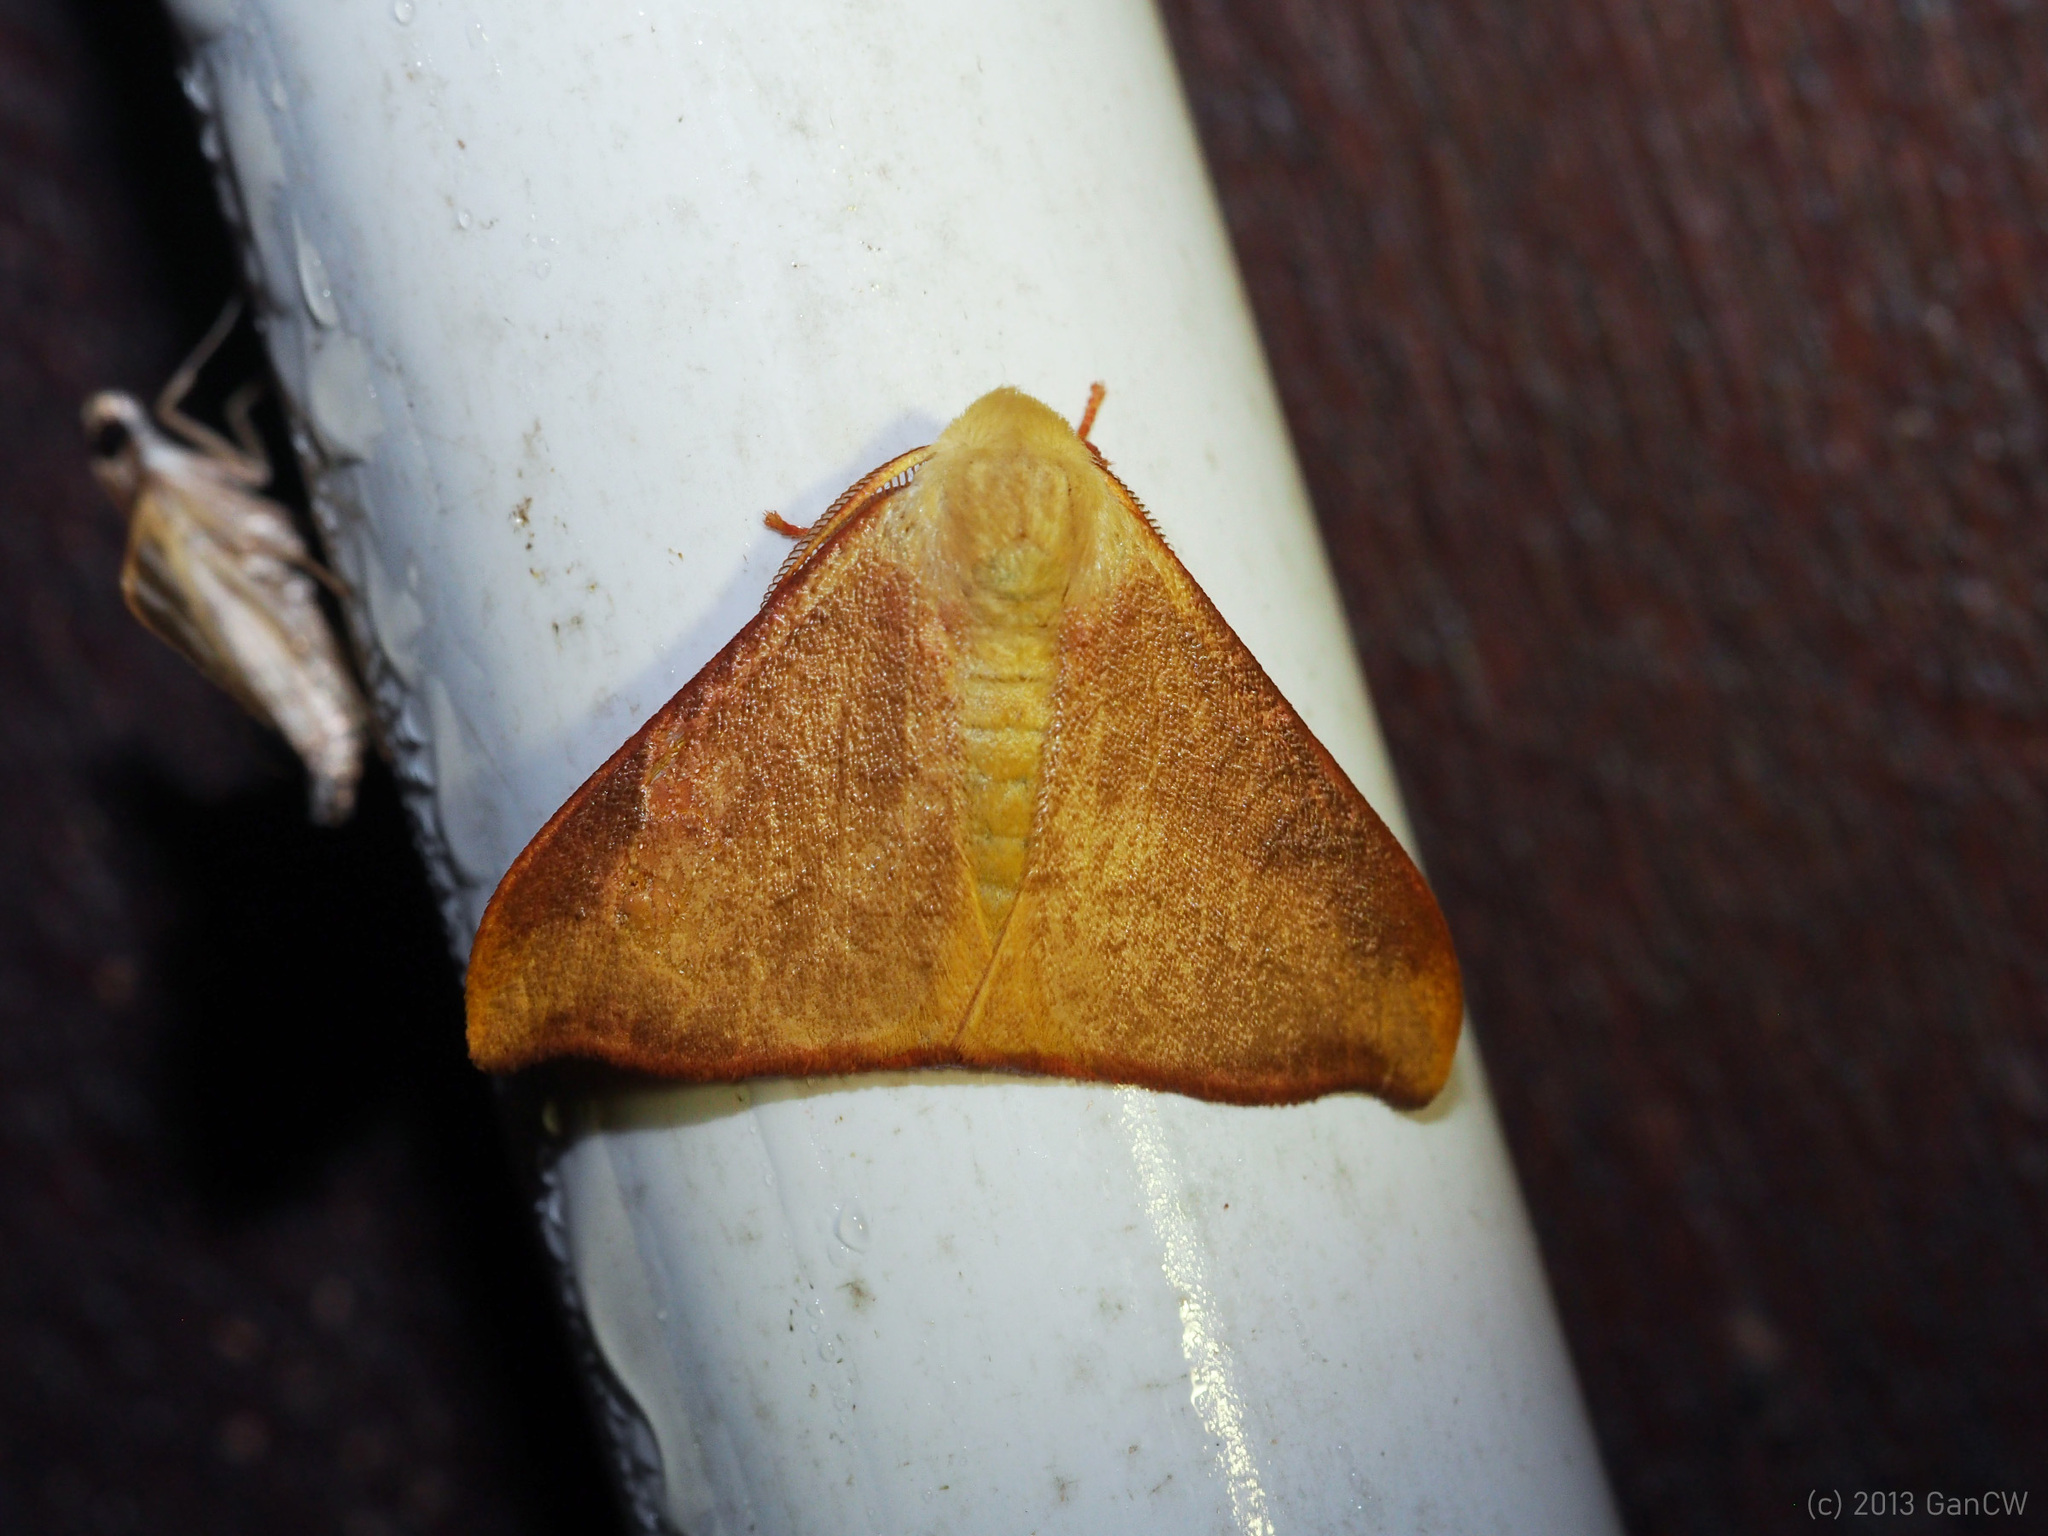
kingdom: Animalia
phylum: Arthropoda
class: Insecta
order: Lepidoptera
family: Erebidae
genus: Arctornis
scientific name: Arctornis marginata
